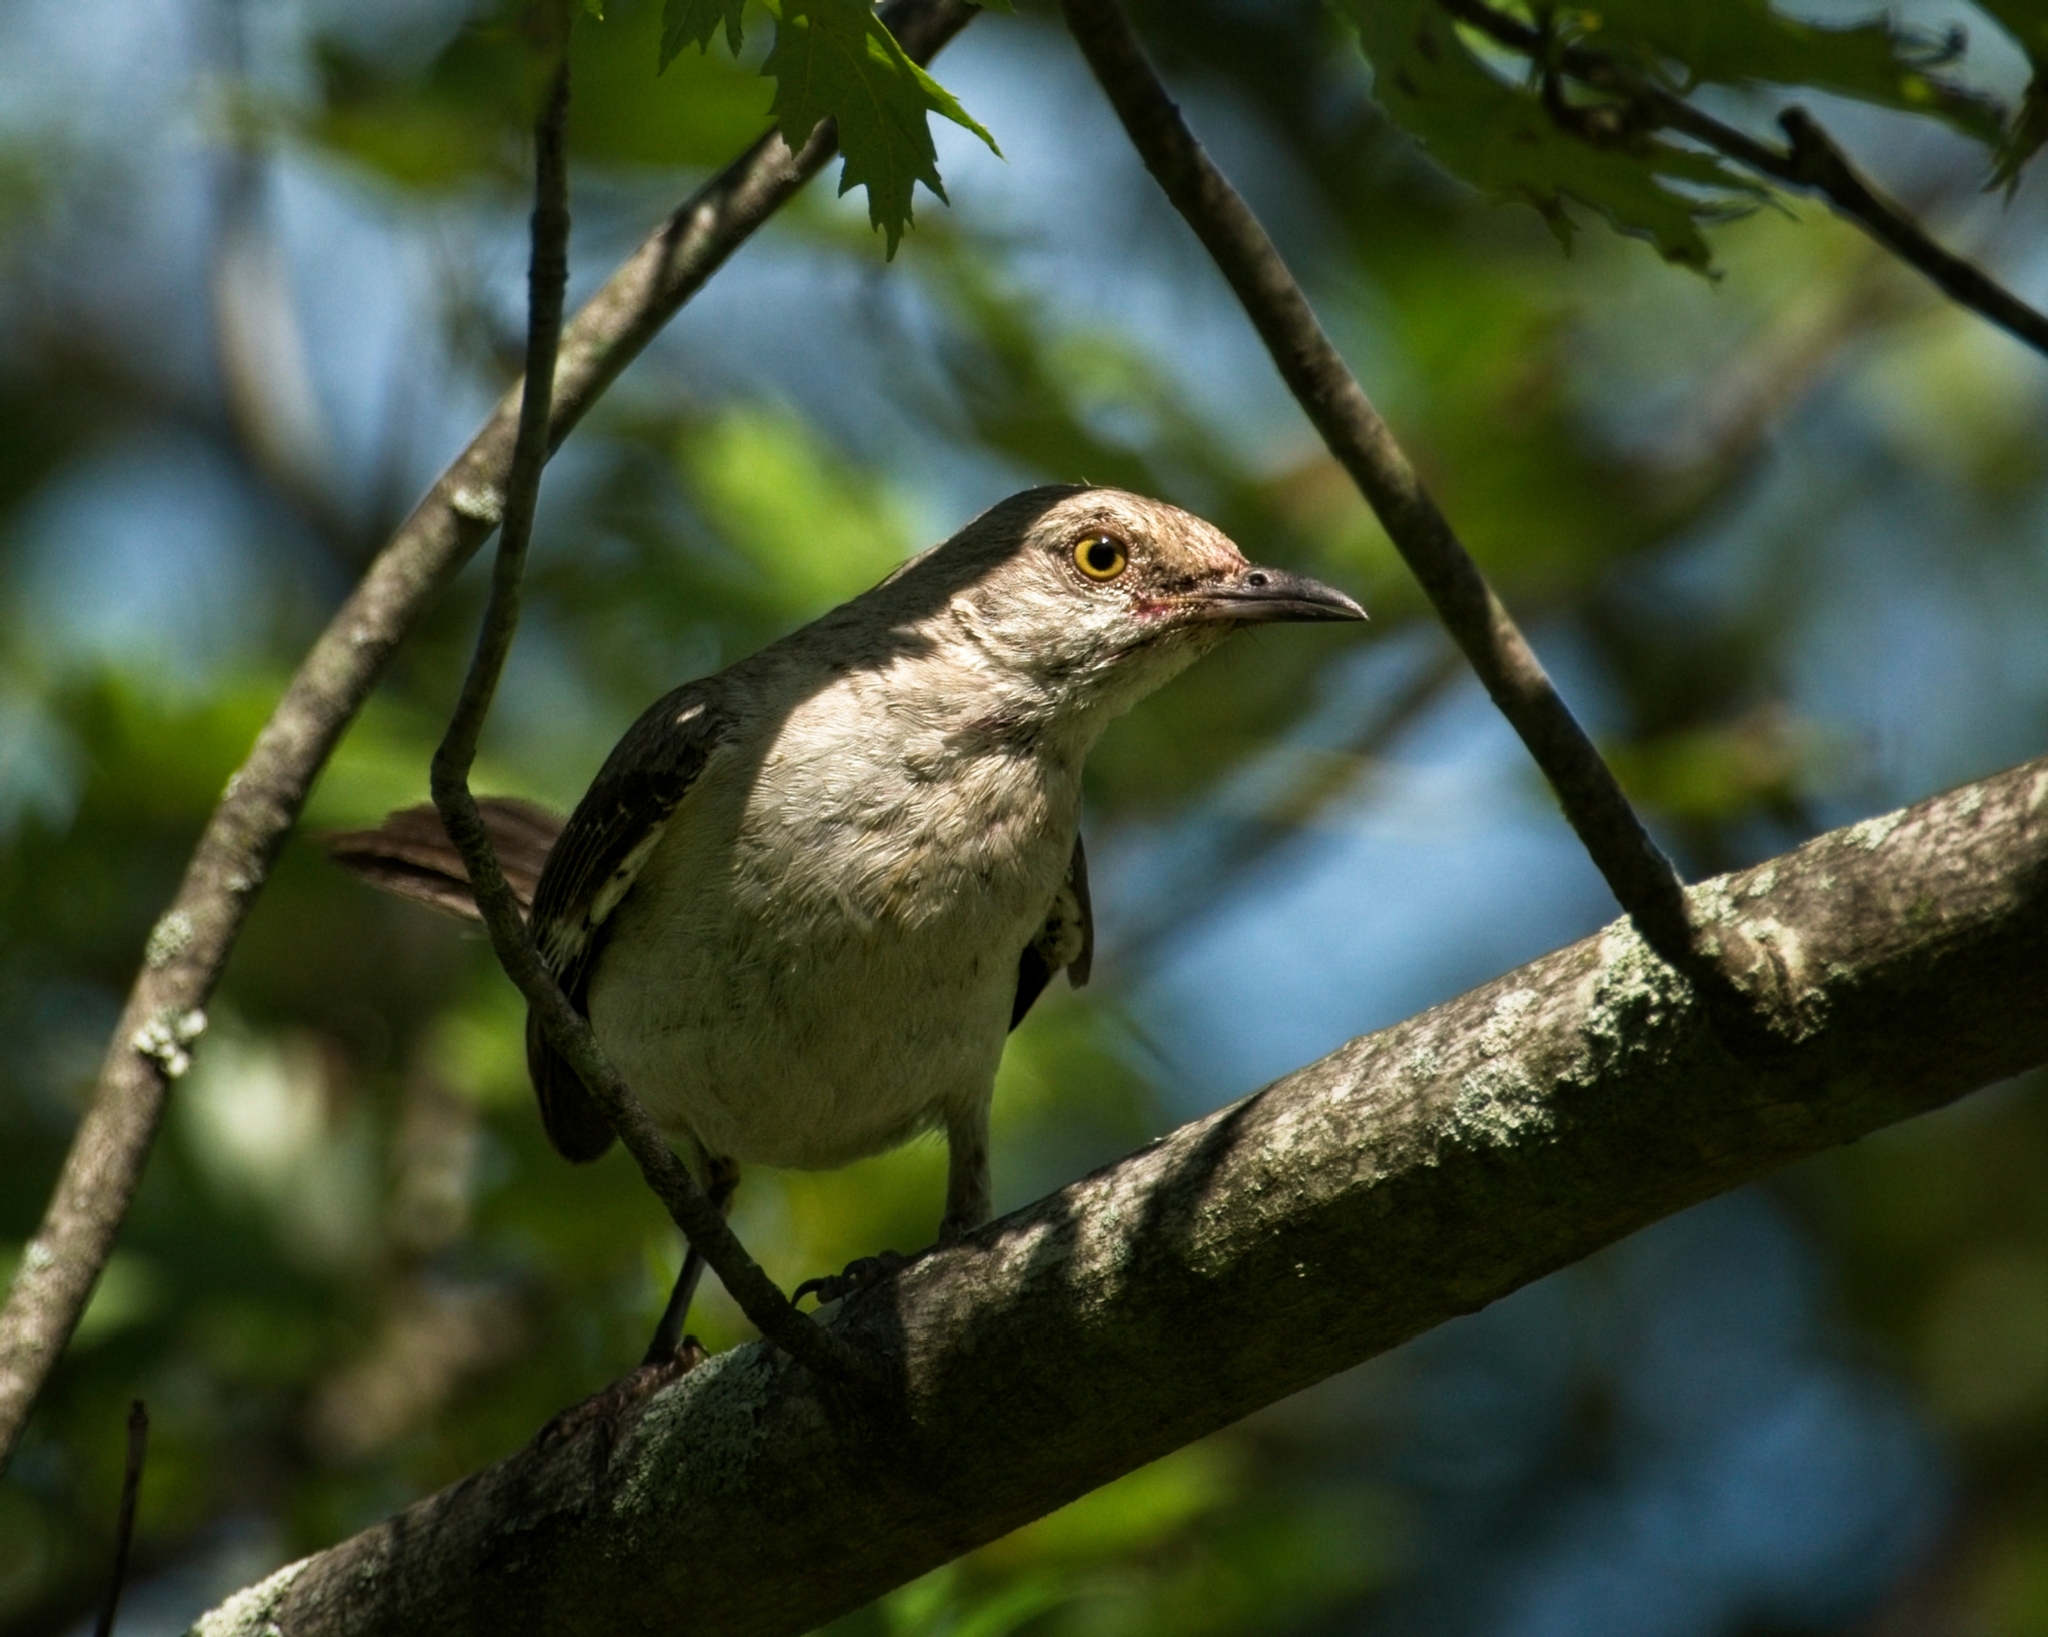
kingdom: Animalia
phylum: Chordata
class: Aves
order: Passeriformes
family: Mimidae
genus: Mimus
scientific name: Mimus polyglottos
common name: Northern mockingbird
